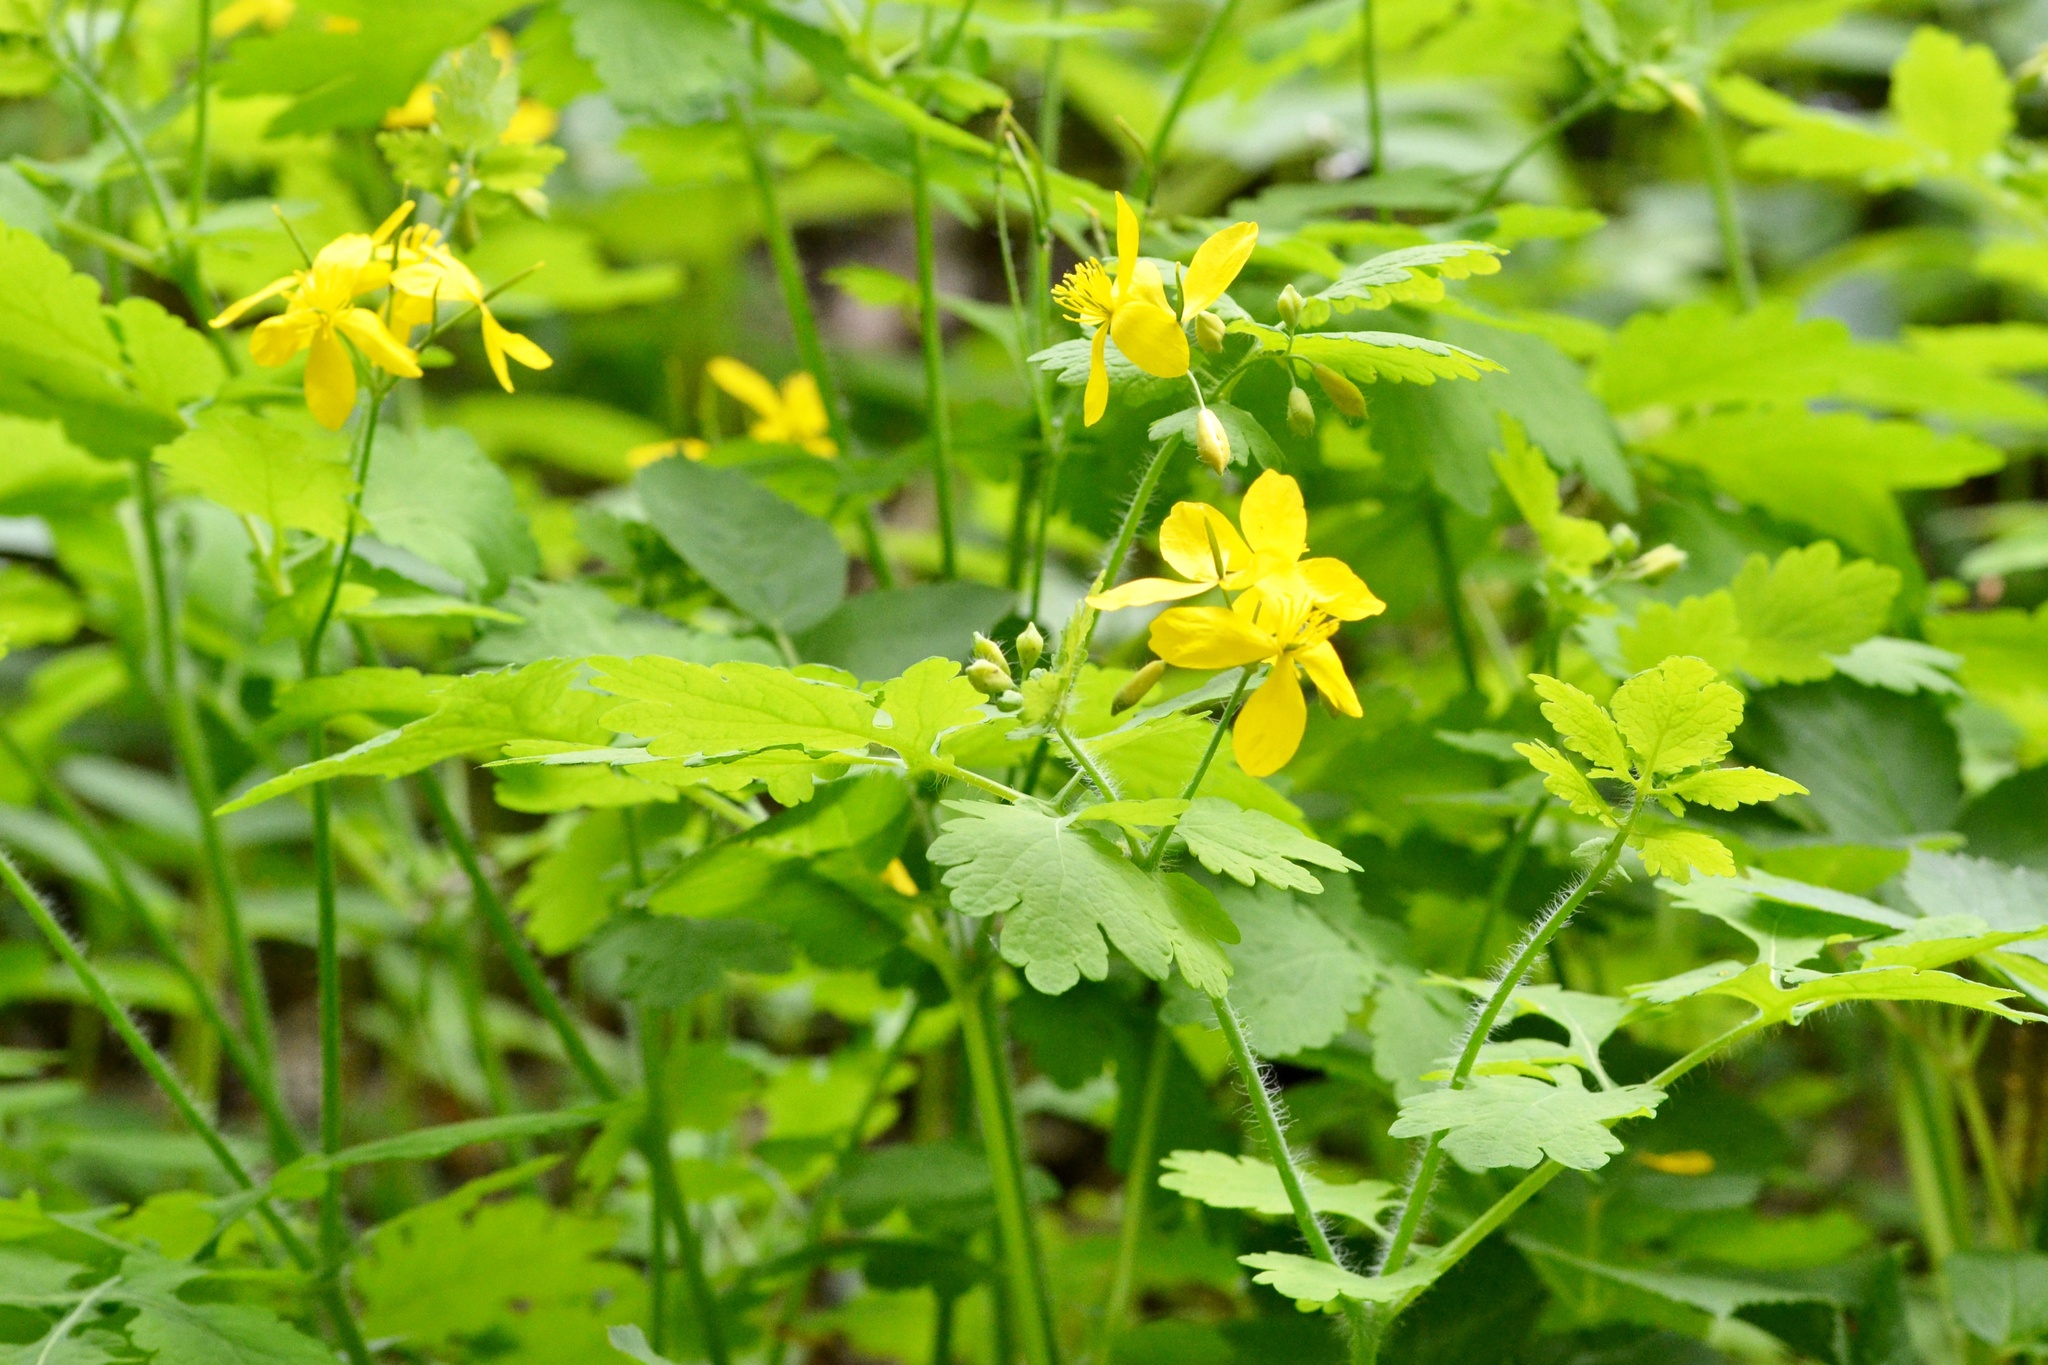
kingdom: Plantae
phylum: Tracheophyta
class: Magnoliopsida
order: Ranunculales
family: Papaveraceae
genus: Chelidonium
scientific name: Chelidonium majus
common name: Greater celandine
